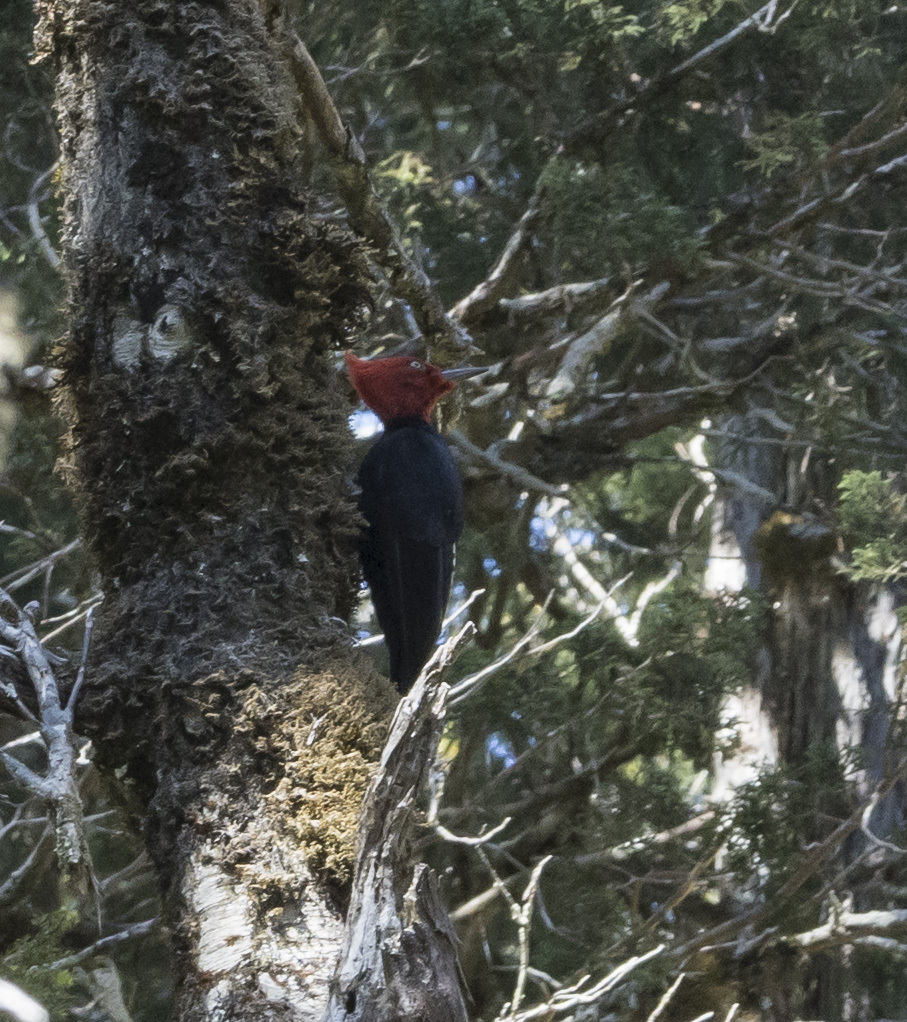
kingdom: Animalia
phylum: Chordata
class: Aves
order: Piciformes
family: Picidae
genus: Campephilus
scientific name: Campephilus magellanicus
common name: Magellanic woodpecker
